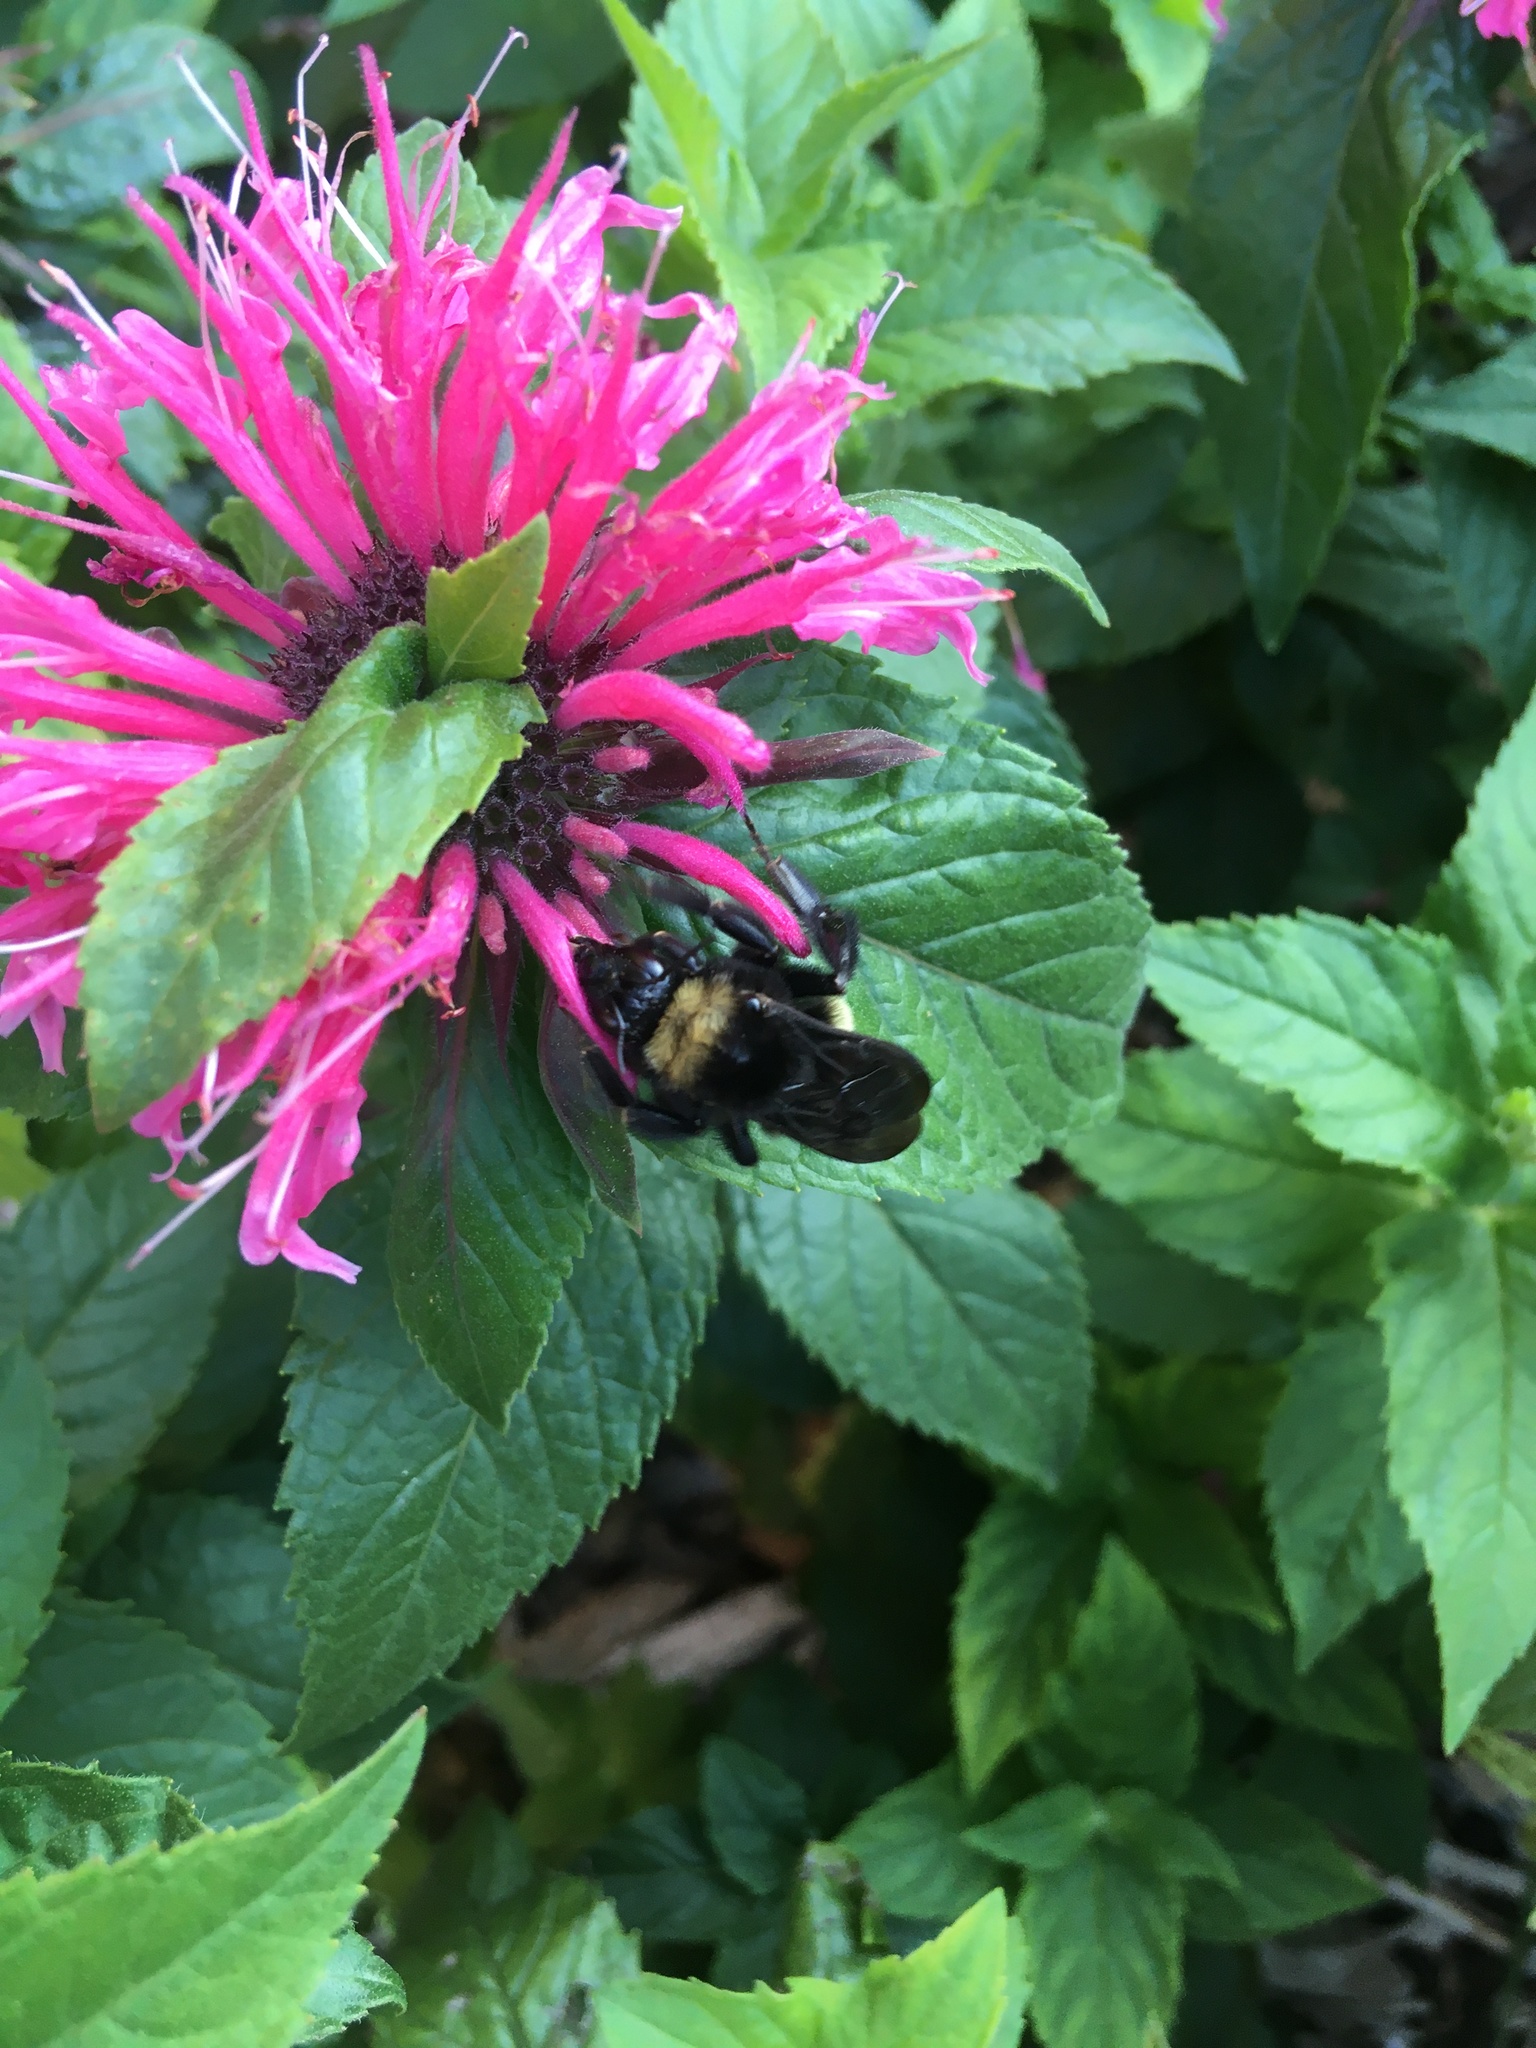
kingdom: Animalia
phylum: Arthropoda
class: Insecta
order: Hymenoptera
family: Apidae
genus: Bombus
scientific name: Bombus pensylvanicus
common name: Bumble bee
